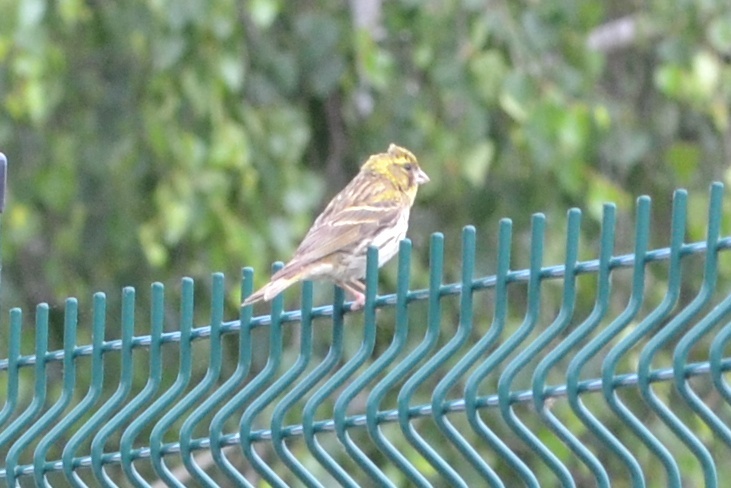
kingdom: Animalia
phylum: Chordata
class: Aves
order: Passeriformes
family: Fringillidae
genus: Serinus
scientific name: Serinus serinus
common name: European serin
